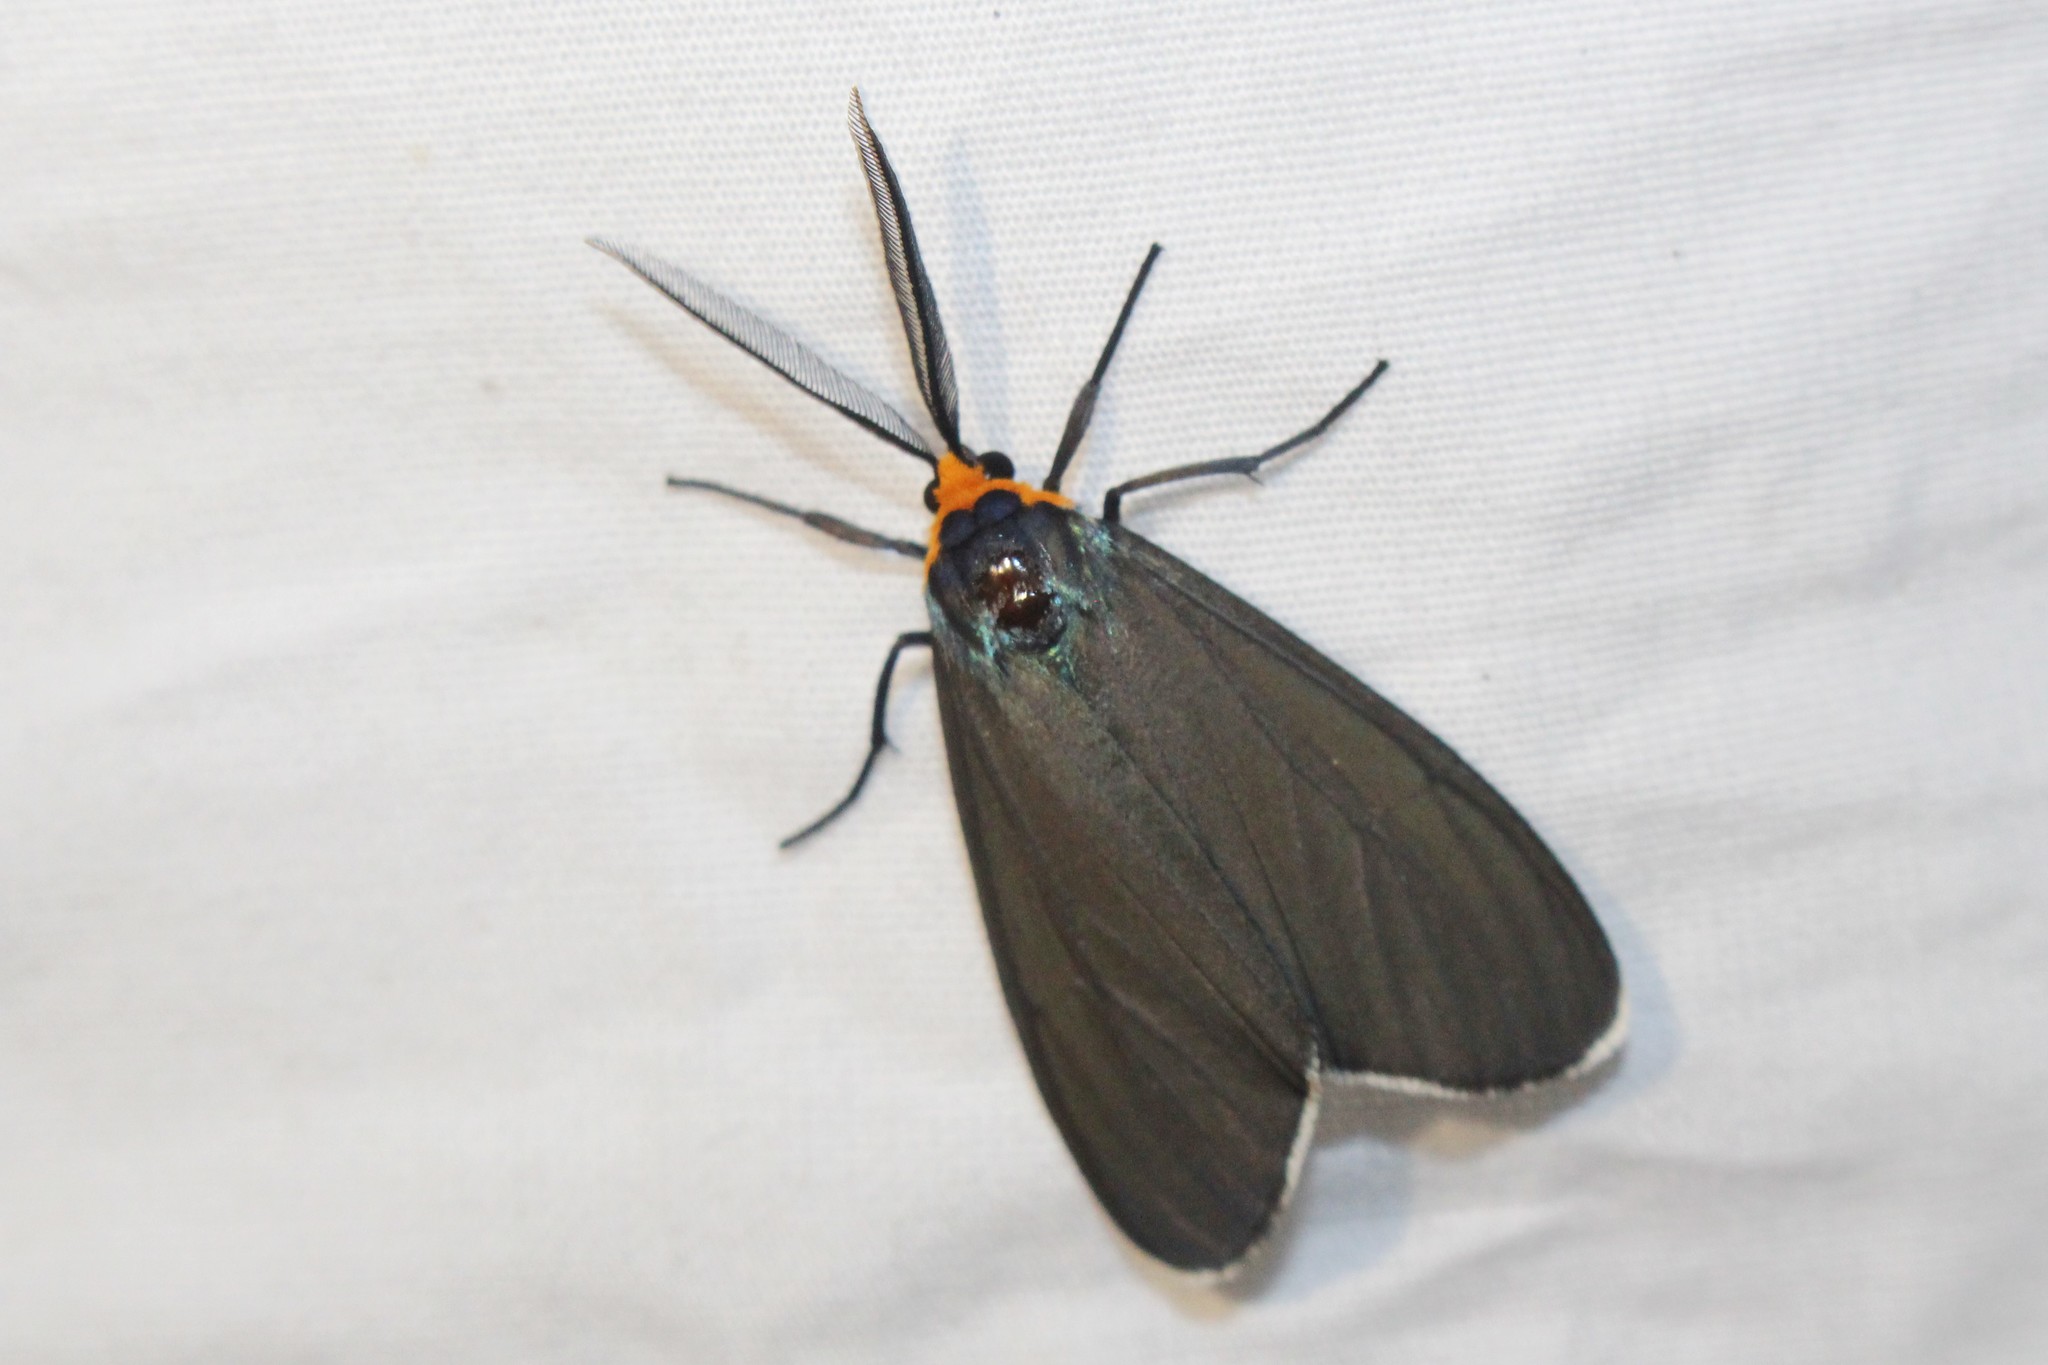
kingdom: Animalia
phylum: Arthropoda
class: Insecta
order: Lepidoptera
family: Erebidae
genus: Ctenucha
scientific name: Ctenucha virginica
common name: Virginia ctenucha moth
